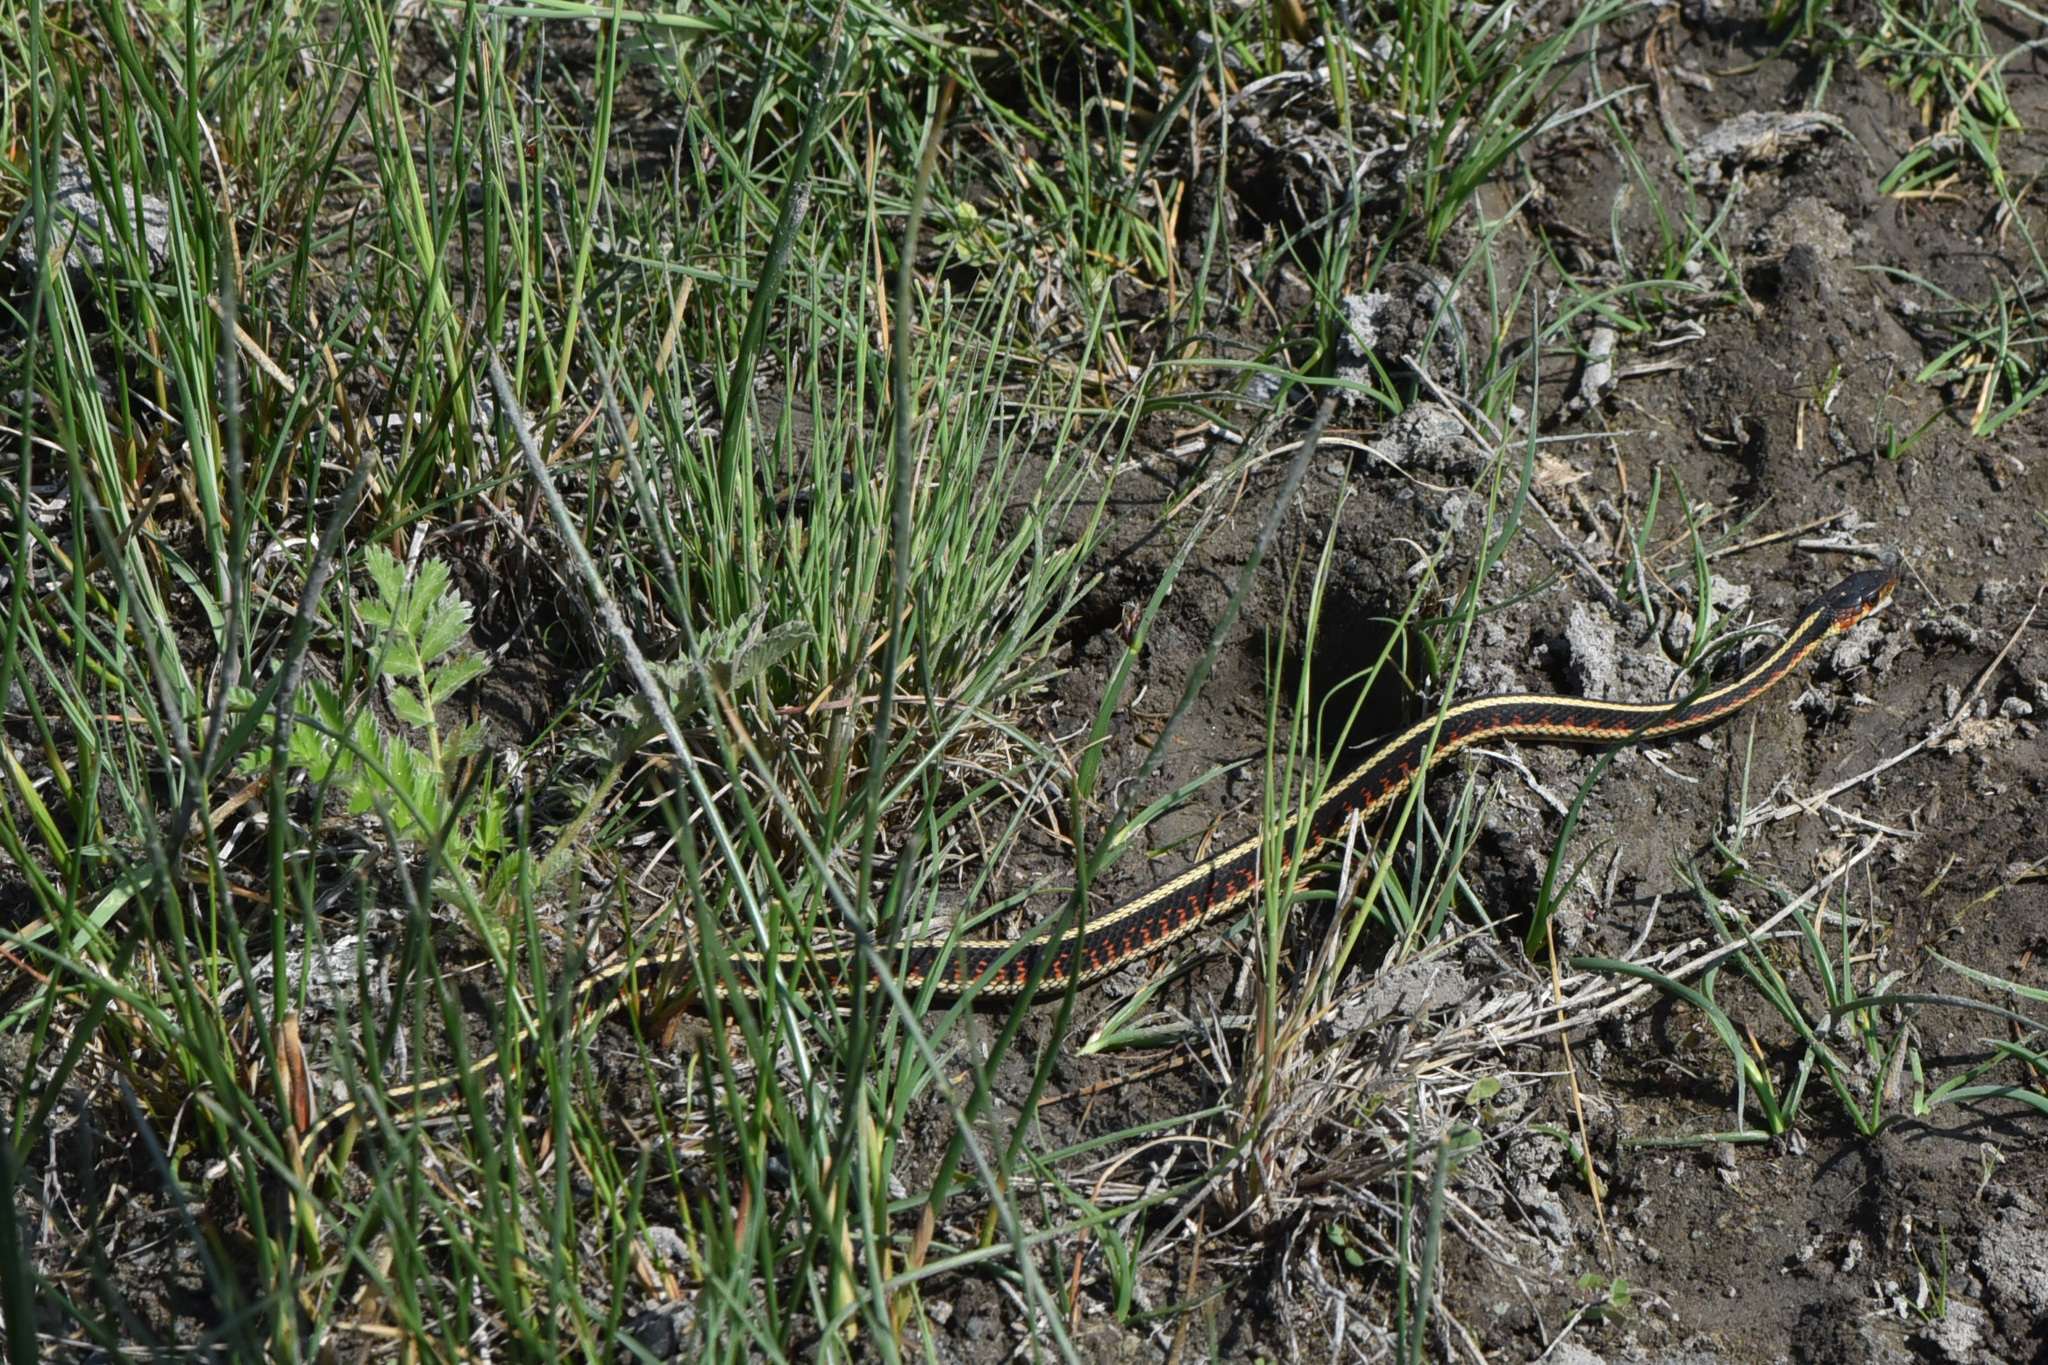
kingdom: Animalia
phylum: Chordata
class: Squamata
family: Colubridae
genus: Thamnophis
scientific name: Thamnophis sirtalis
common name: Common garter snake
